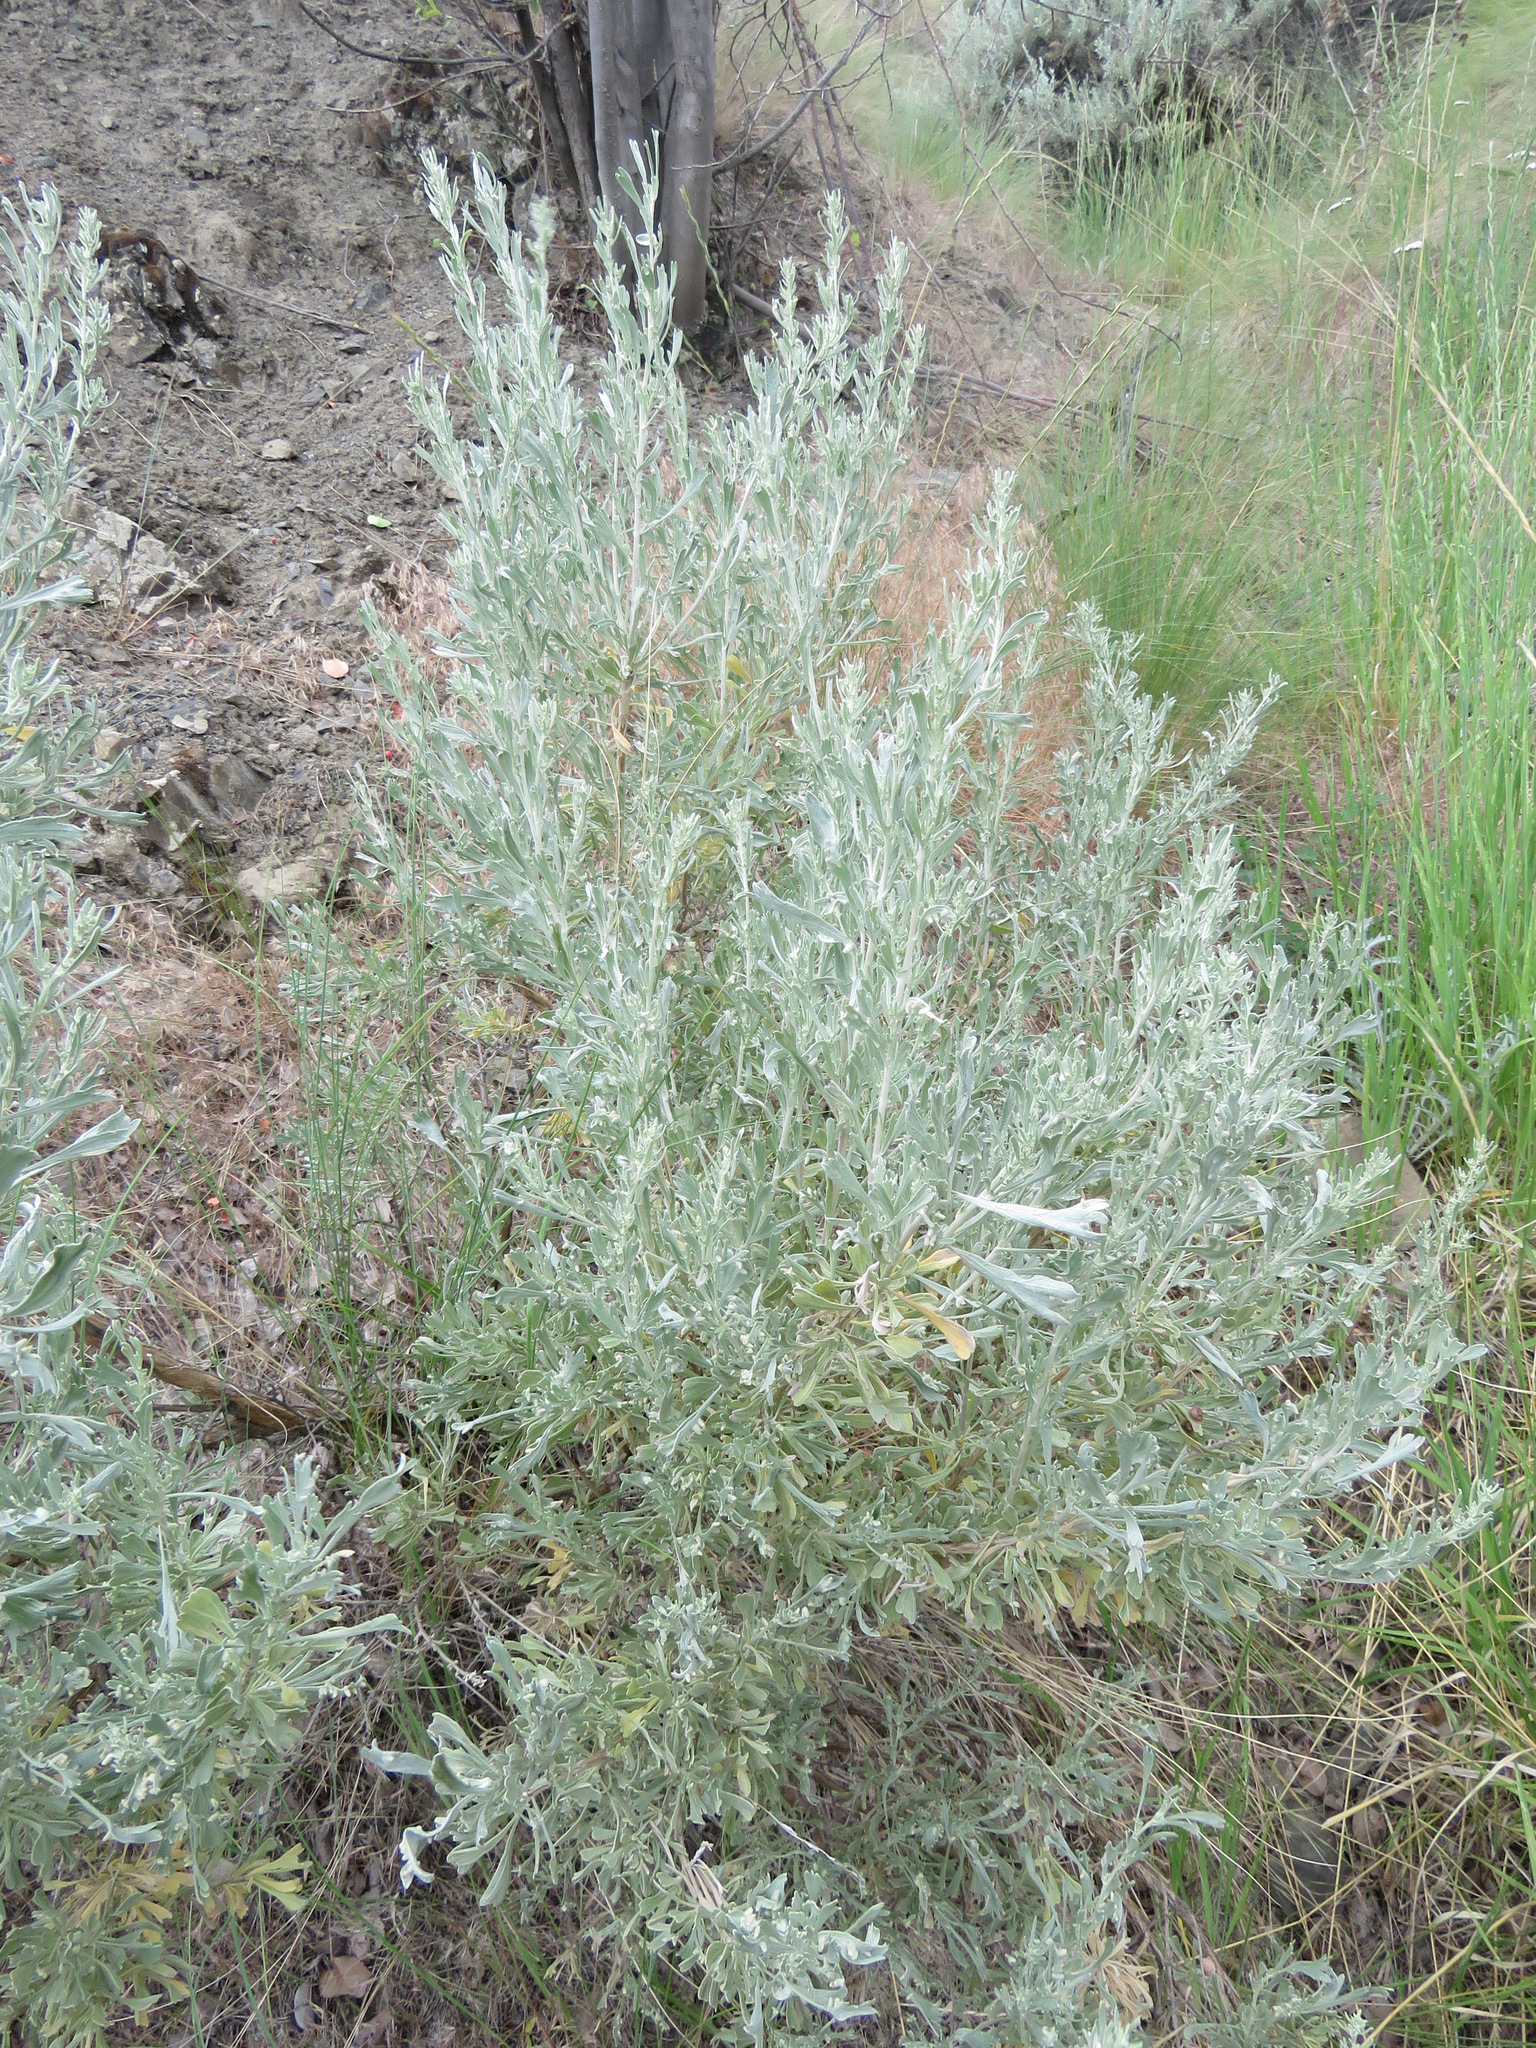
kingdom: Plantae
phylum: Tracheophyta
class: Magnoliopsida
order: Asterales
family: Asteraceae
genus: Artemisia
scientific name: Artemisia tridentata
